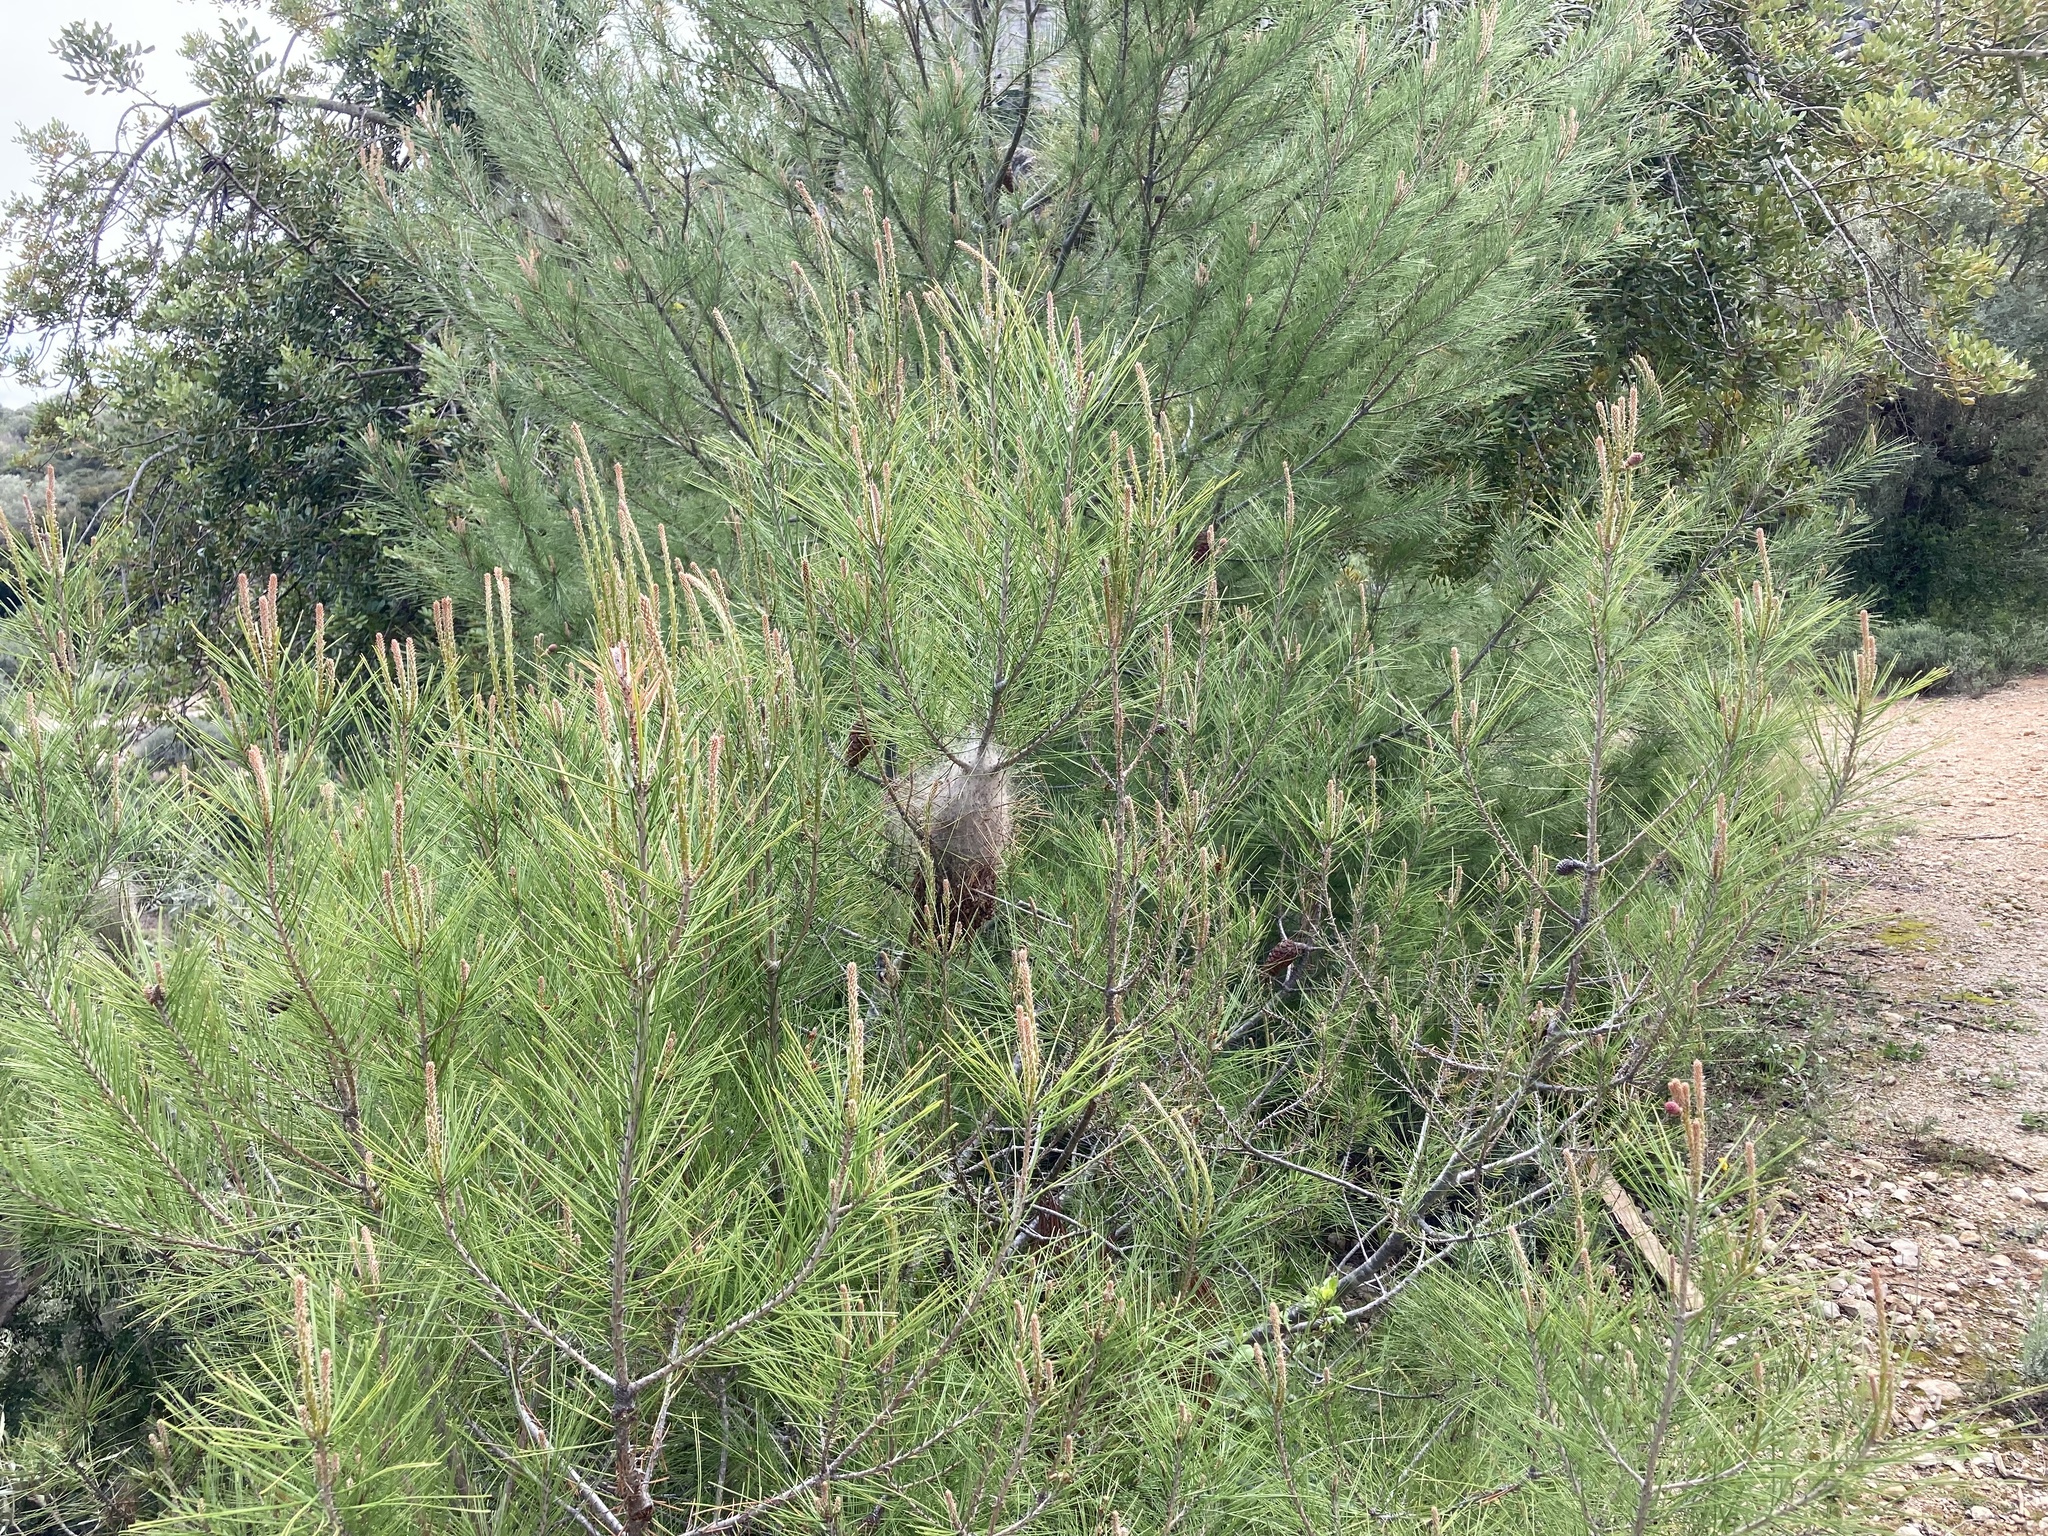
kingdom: Animalia
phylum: Arthropoda
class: Insecta
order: Lepidoptera
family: Notodontidae
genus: Thaumetopoea
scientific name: Thaumetopoea pityocampa
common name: Pine processionary
